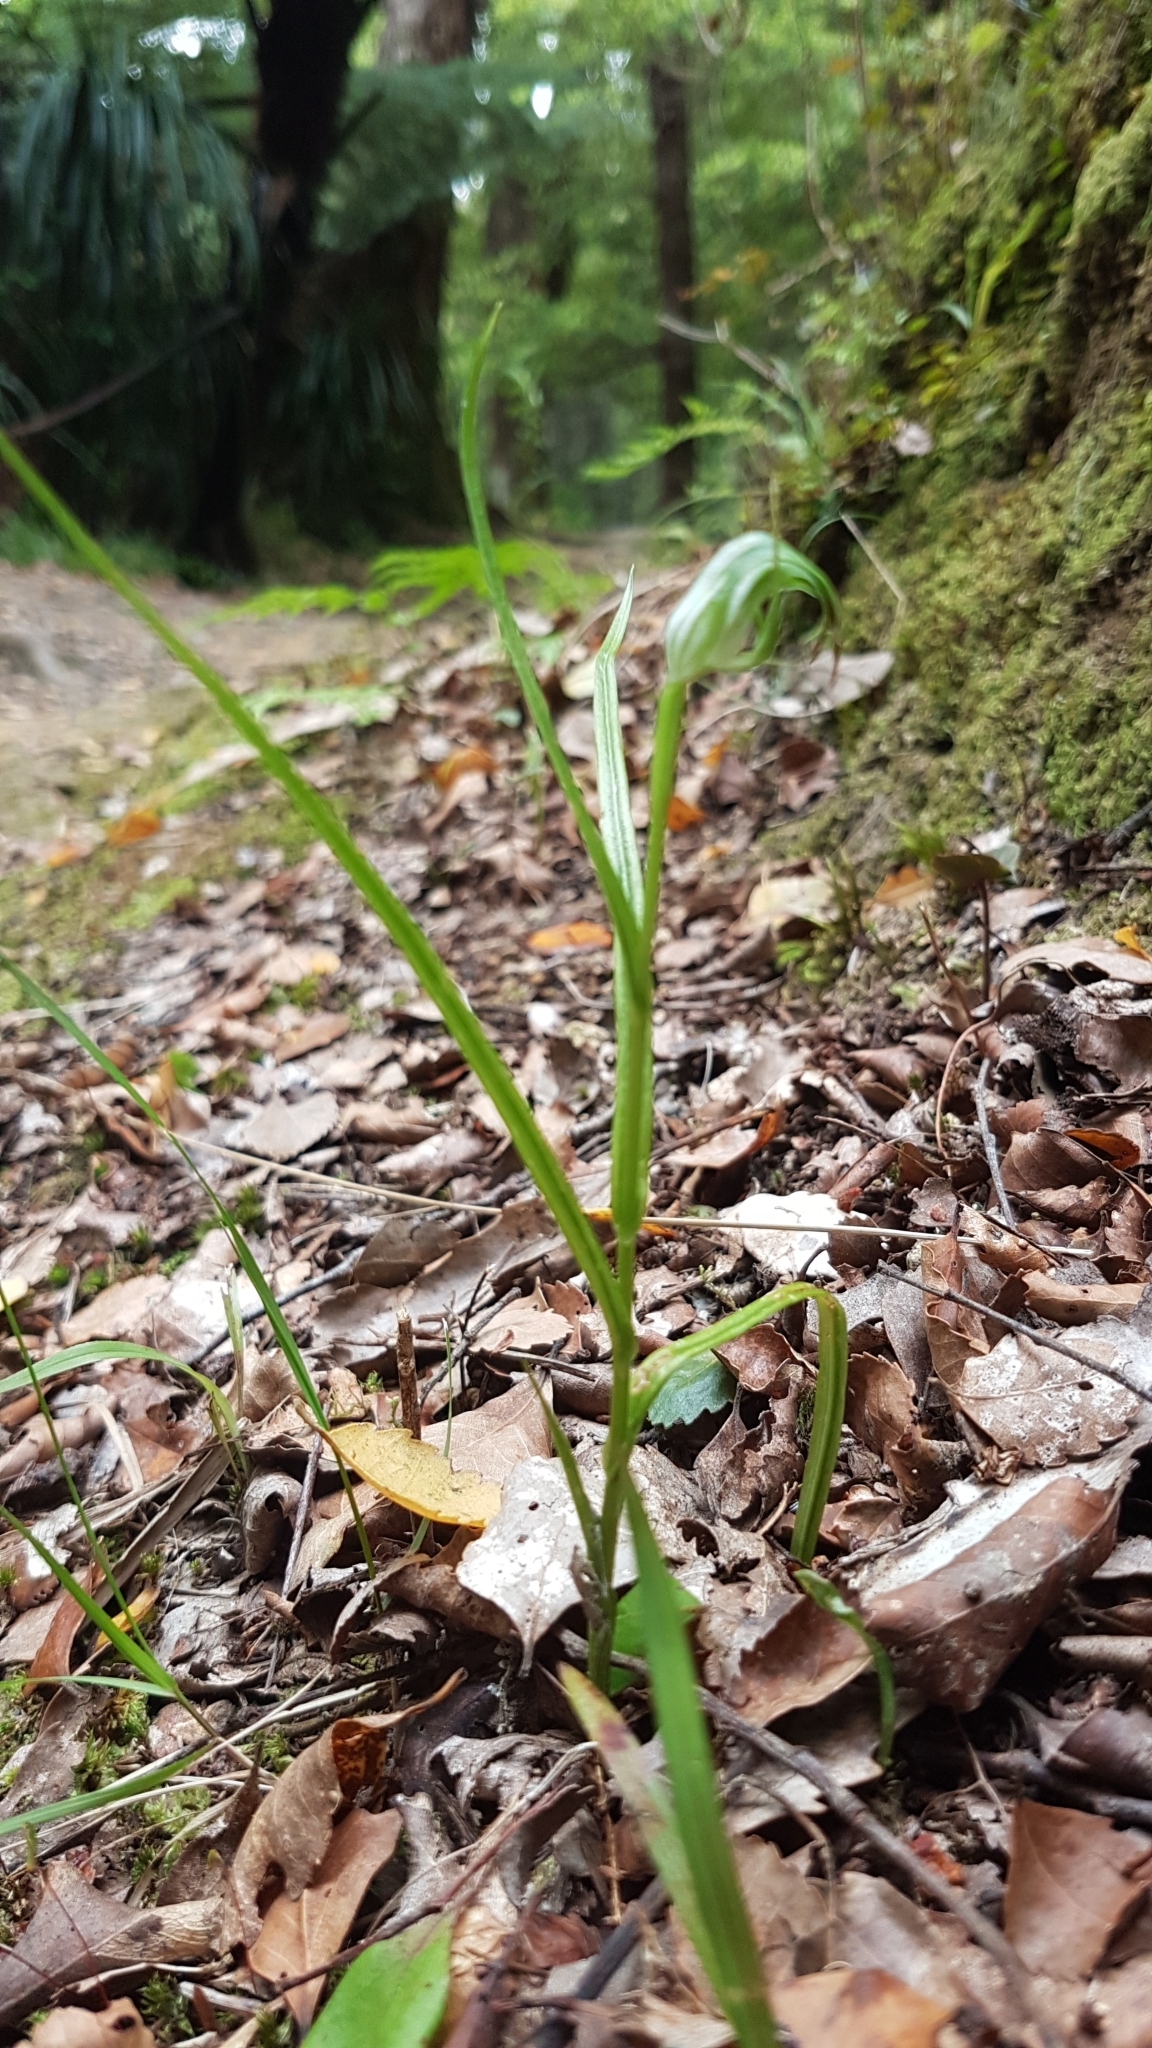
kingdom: Plantae
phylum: Tracheophyta
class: Liliopsida
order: Asparagales
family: Orchidaceae
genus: Pterostylis
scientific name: Pterostylis graminea
